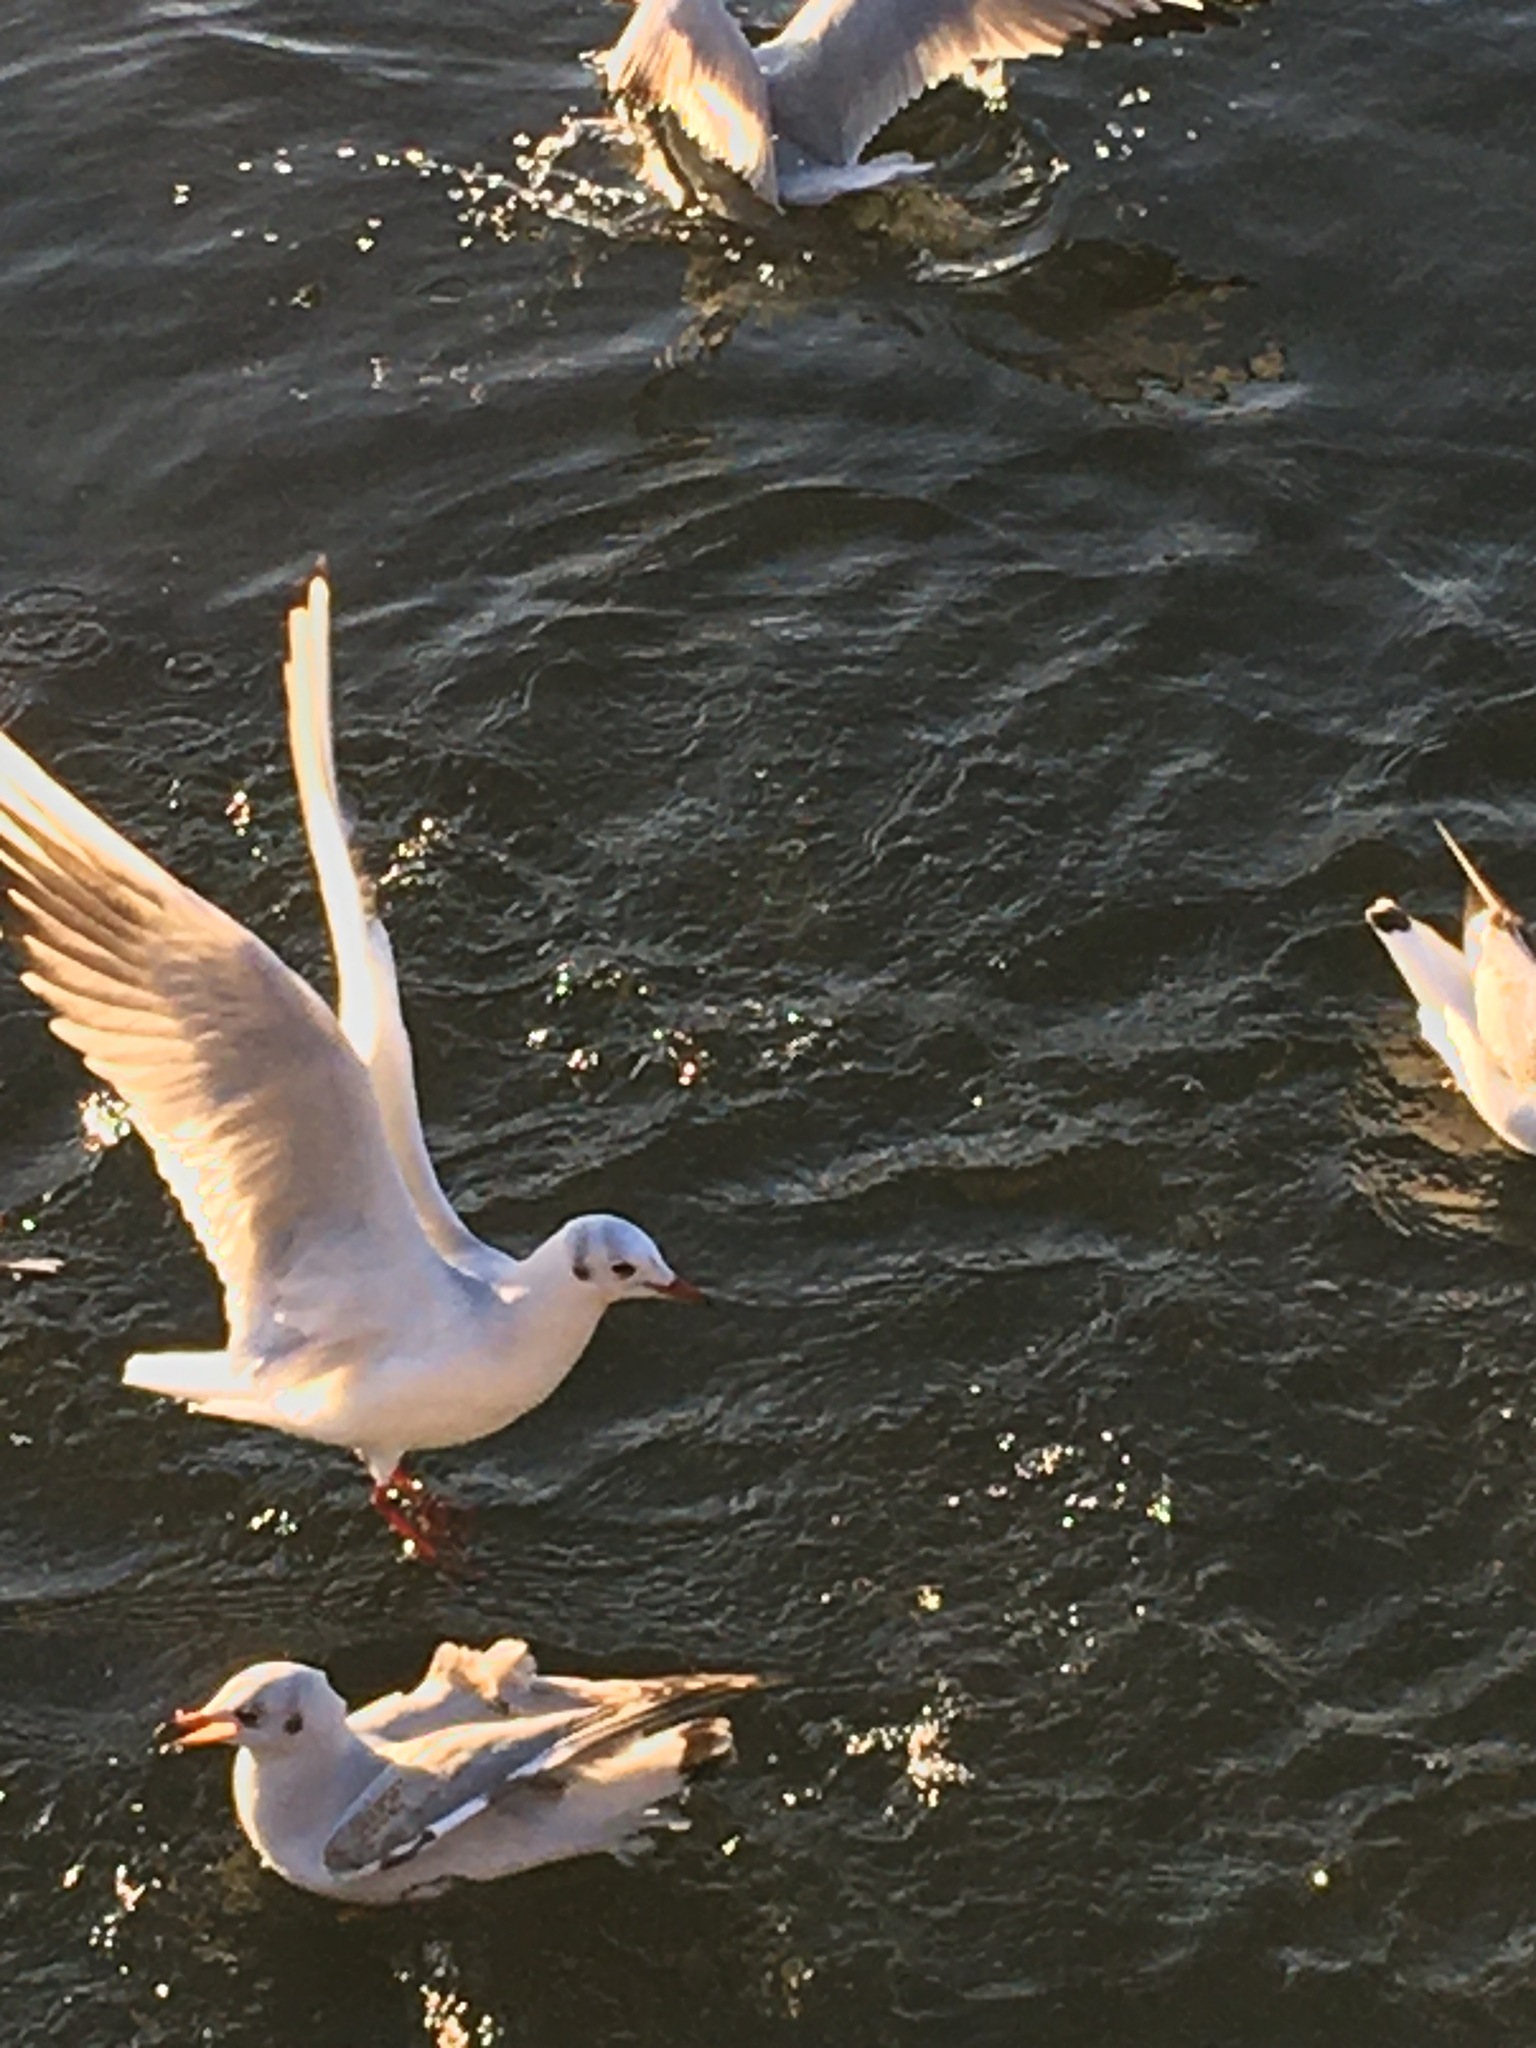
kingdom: Animalia
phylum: Chordata
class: Aves
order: Charadriiformes
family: Laridae
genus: Chroicocephalus
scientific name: Chroicocephalus ridibundus
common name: Black-headed gull
